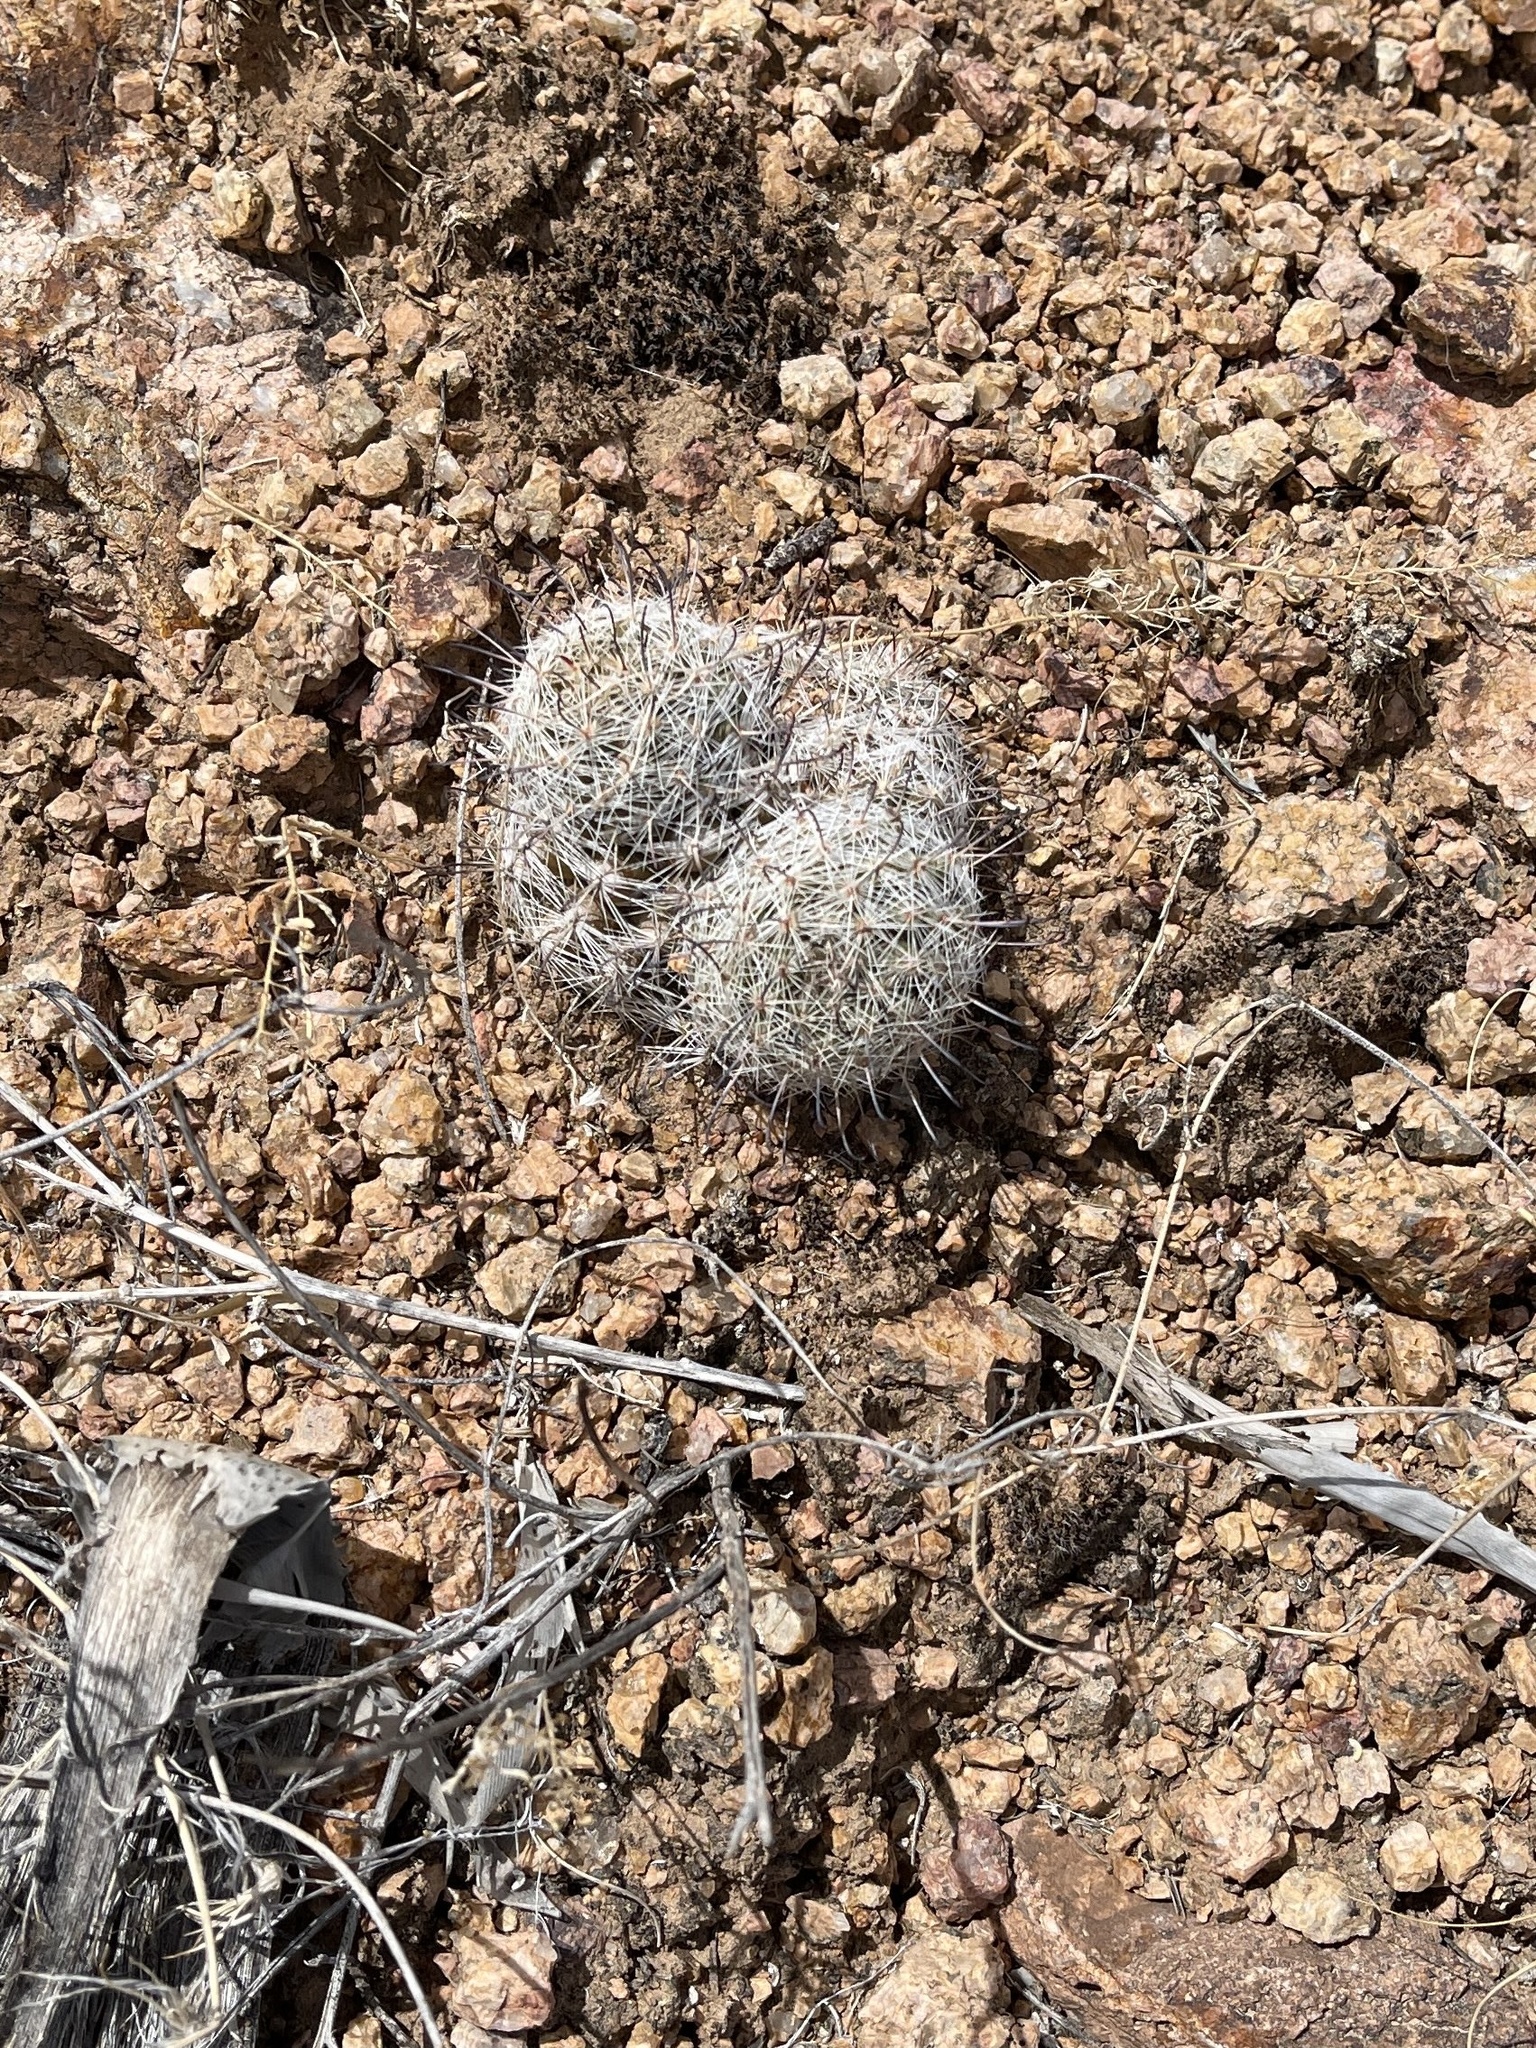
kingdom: Plantae
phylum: Tracheophyta
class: Magnoliopsida
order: Caryophyllales
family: Cactaceae
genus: Cochemiea
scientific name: Cochemiea grahamii
